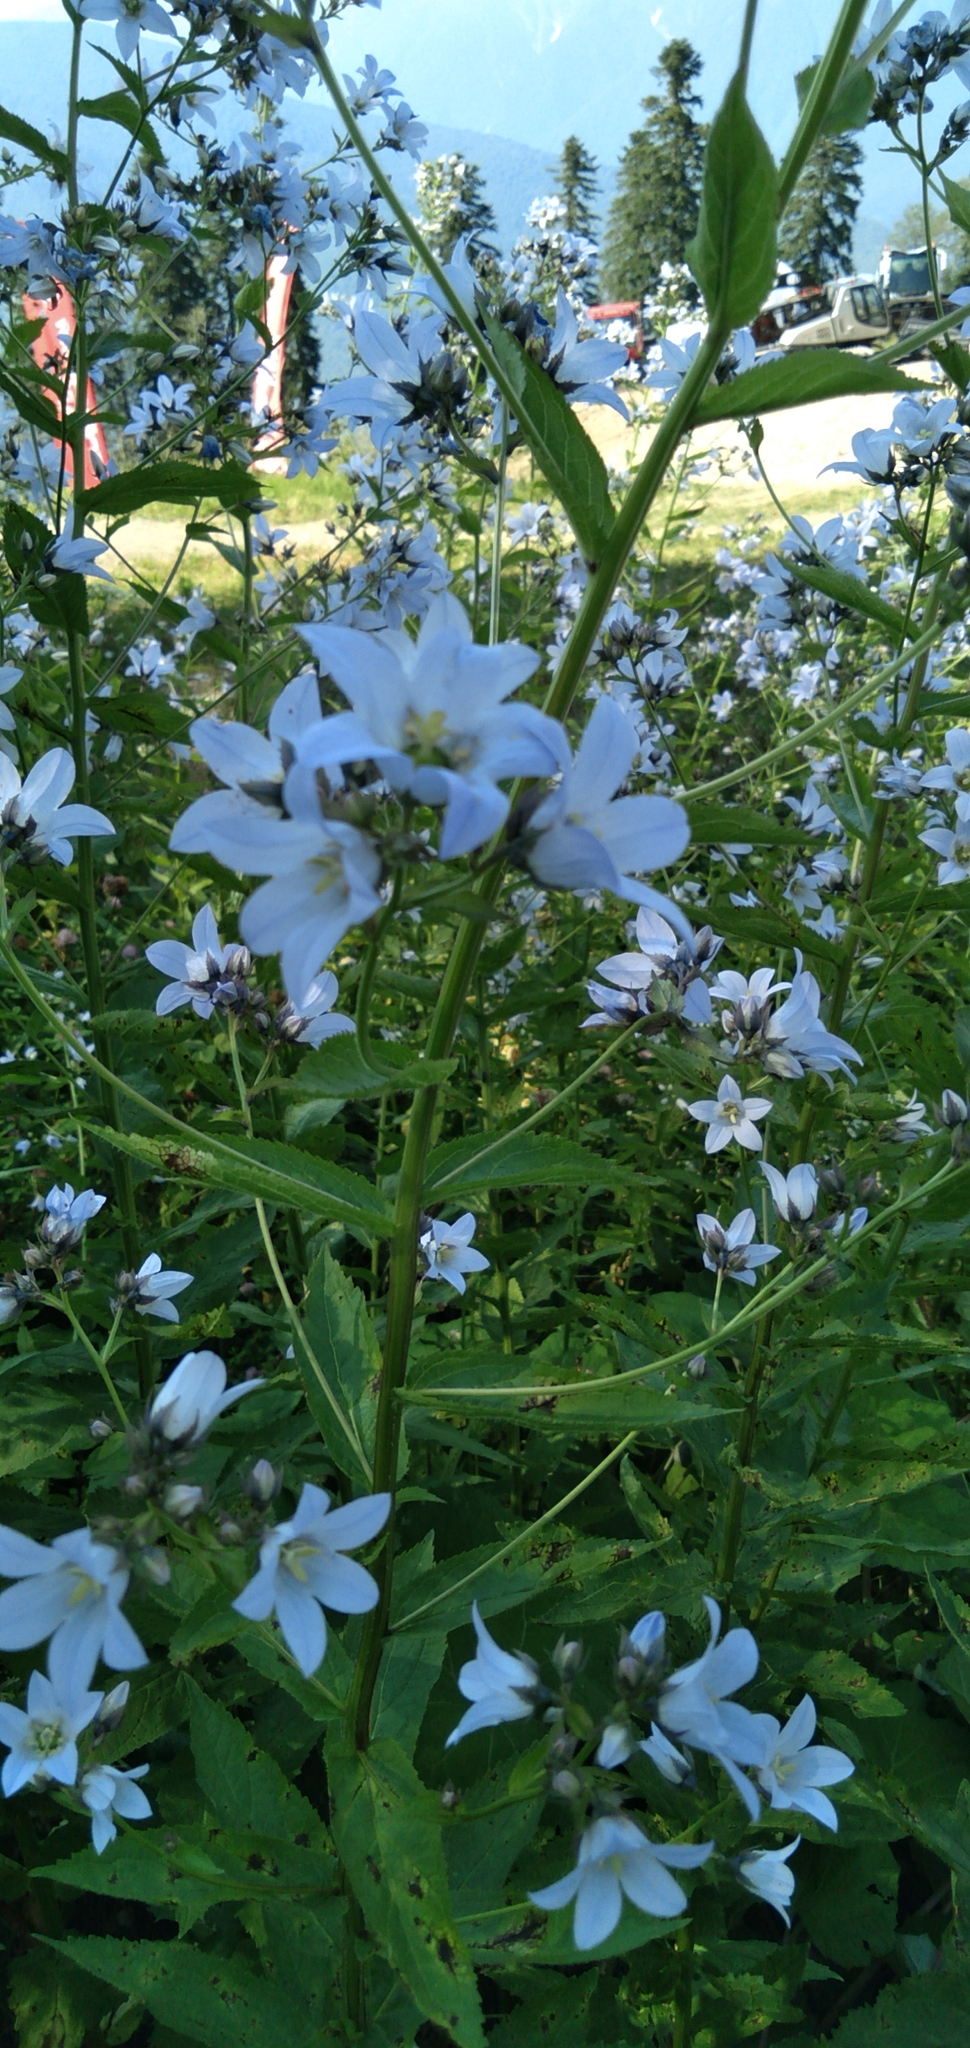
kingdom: Plantae
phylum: Tracheophyta
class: Magnoliopsida
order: Asterales
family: Campanulaceae
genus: Campanula
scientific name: Campanula lactiflora
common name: Milky bellflower
